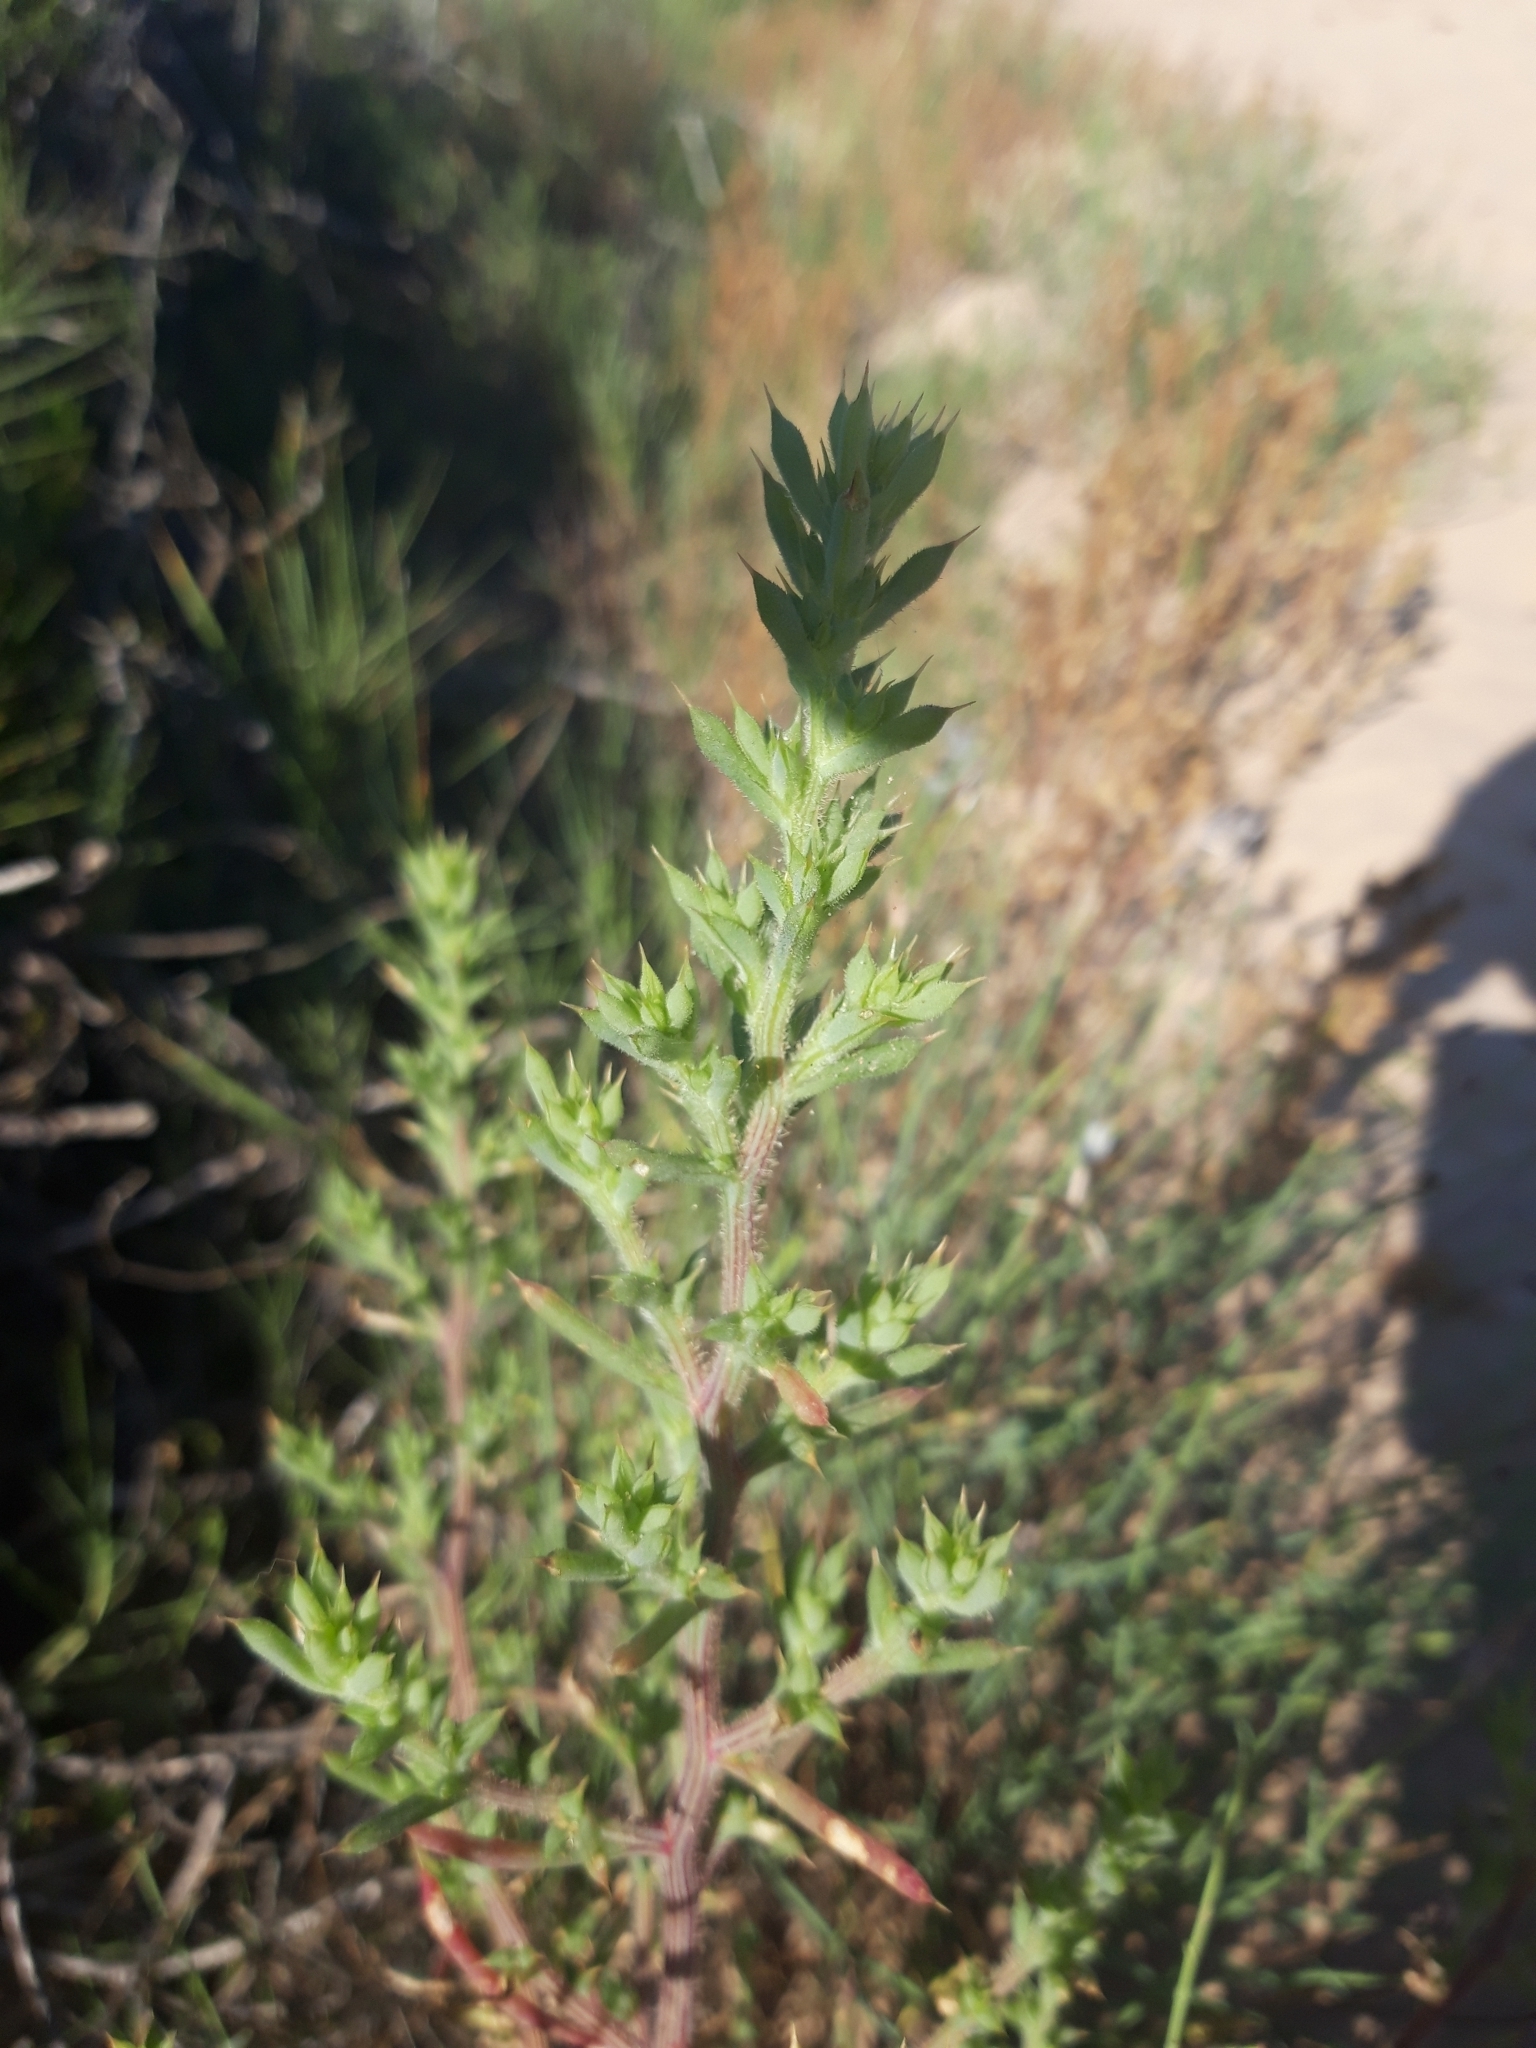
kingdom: Plantae
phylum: Tracheophyta
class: Magnoliopsida
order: Caryophyllales
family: Amaranthaceae
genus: Salsola
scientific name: Salsola kali
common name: Saltwort
